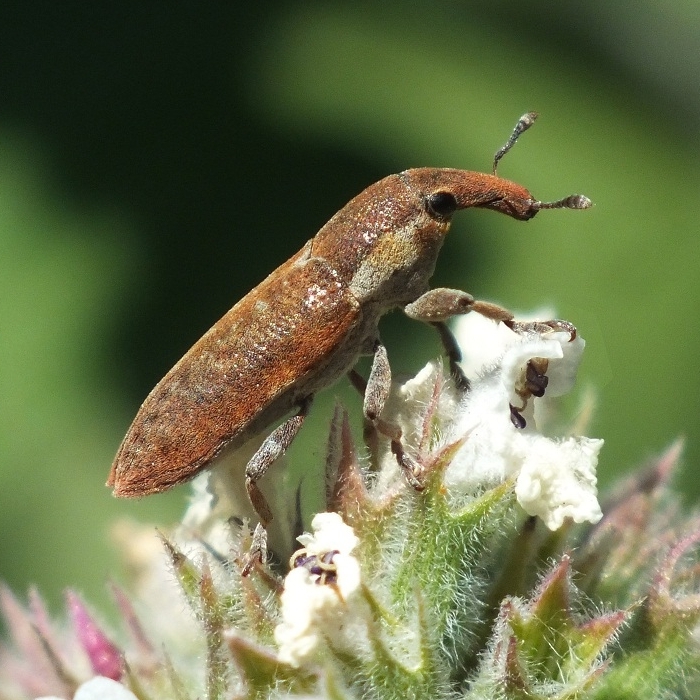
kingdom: Animalia
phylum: Arthropoda
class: Insecta
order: Coleoptera
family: Curculionidae
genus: Lixus
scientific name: Lixus cinerascens
